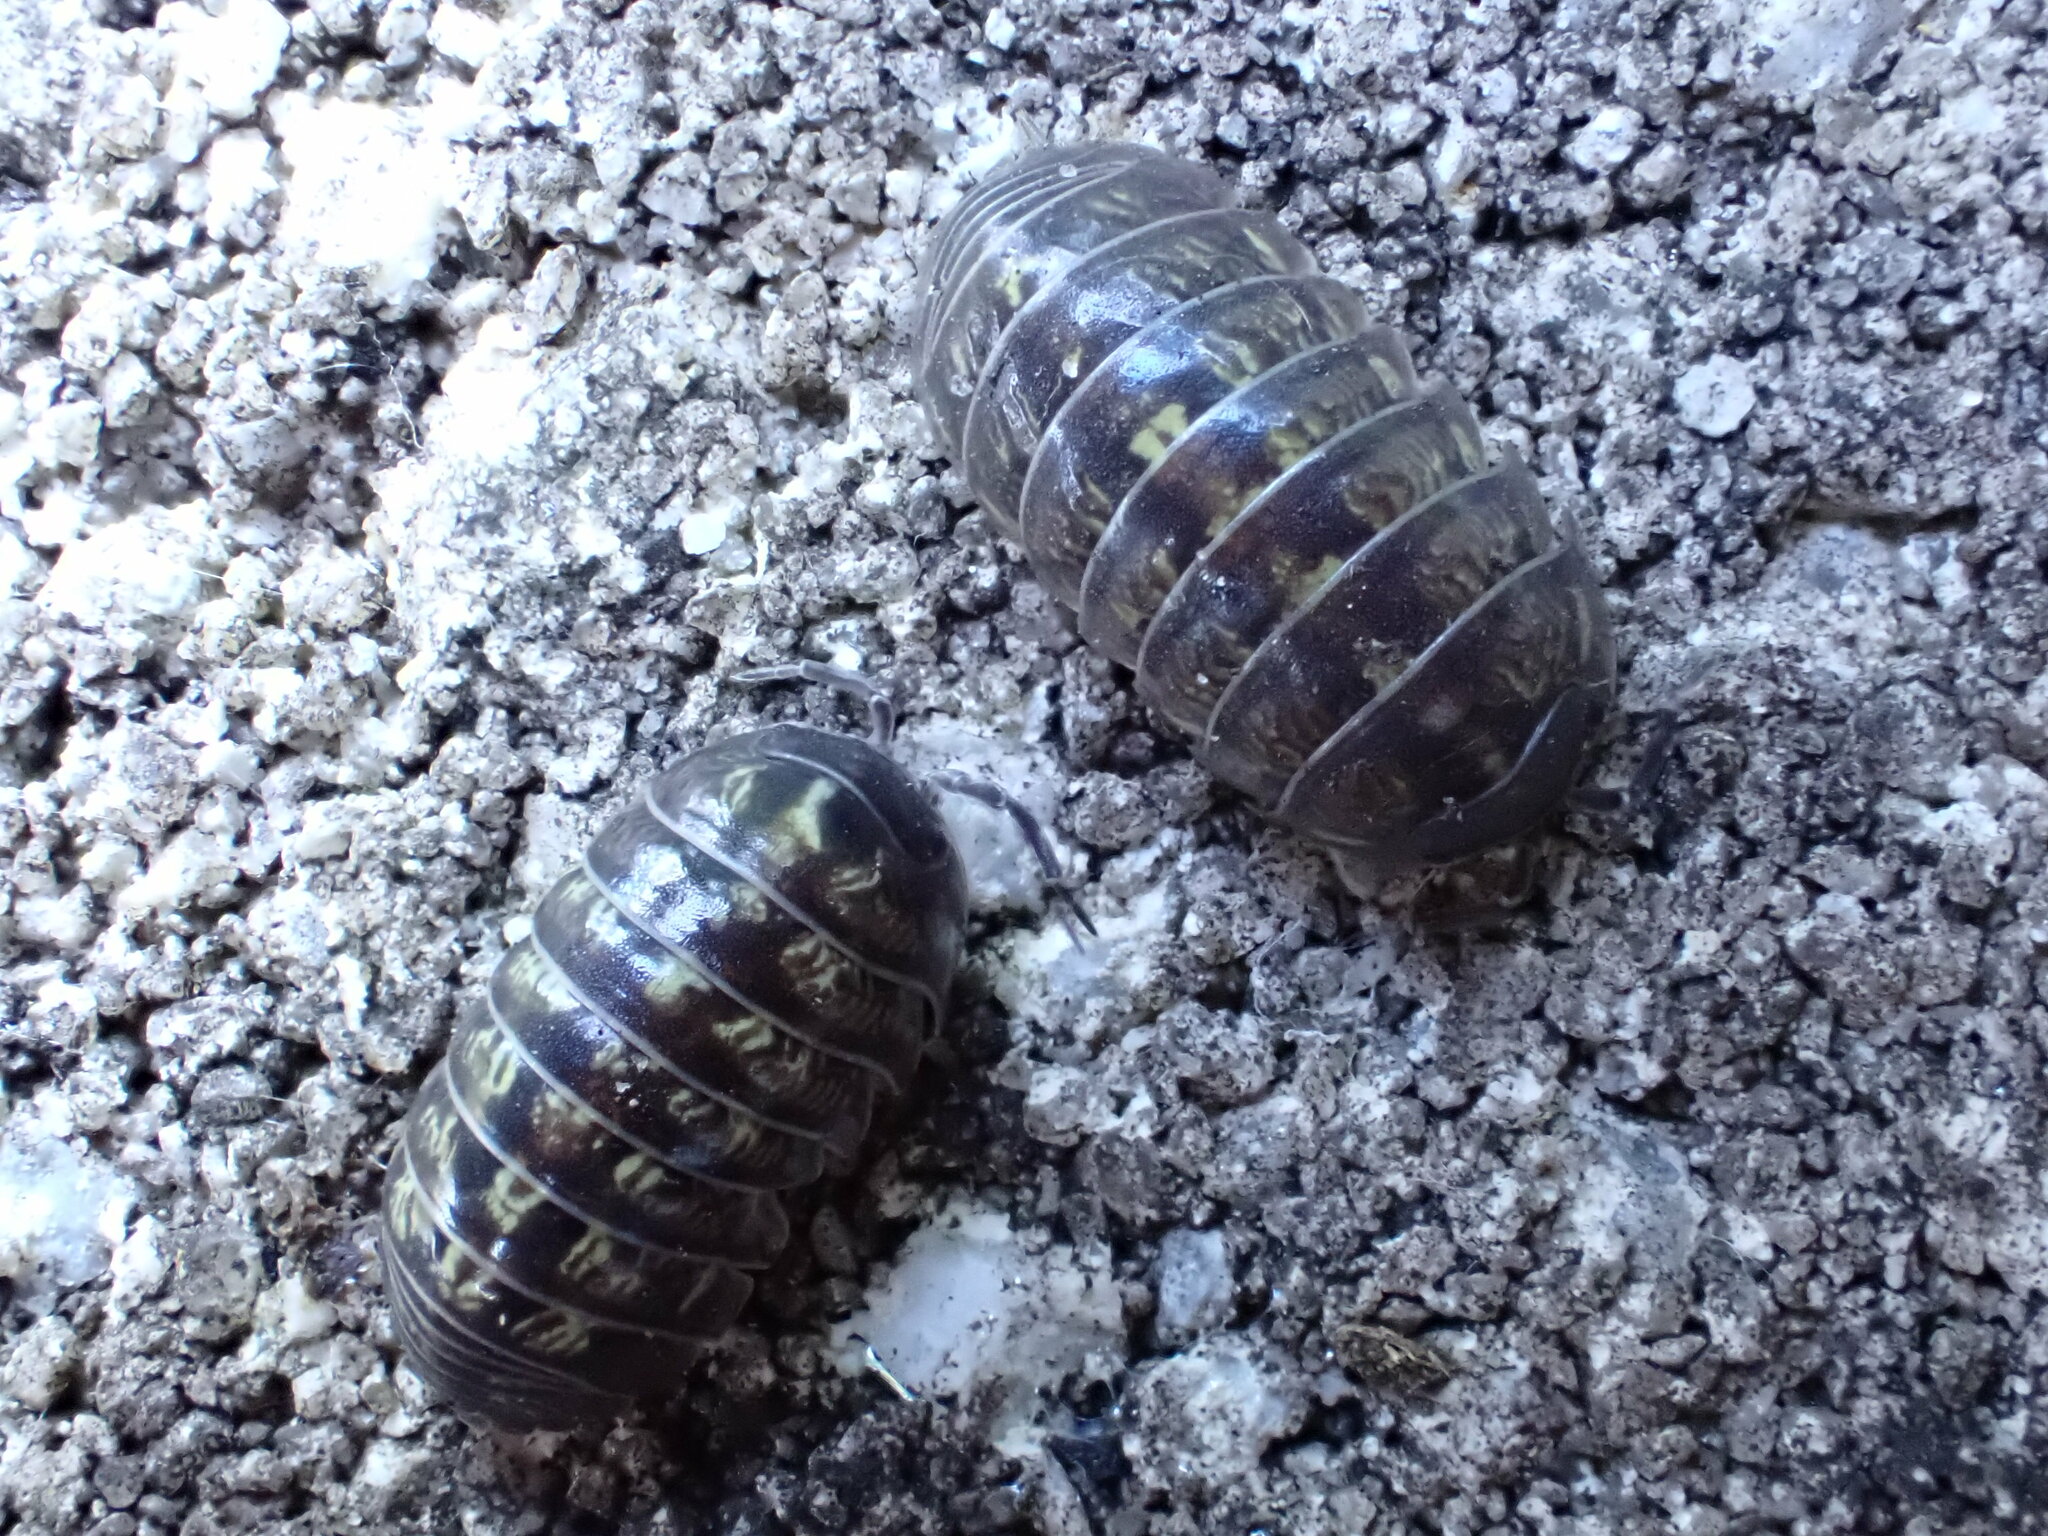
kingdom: Animalia
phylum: Arthropoda
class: Malacostraca
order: Isopoda
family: Armadillidiidae
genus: Armadillidium
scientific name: Armadillidium vulgare
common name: Common pill woodlouse
